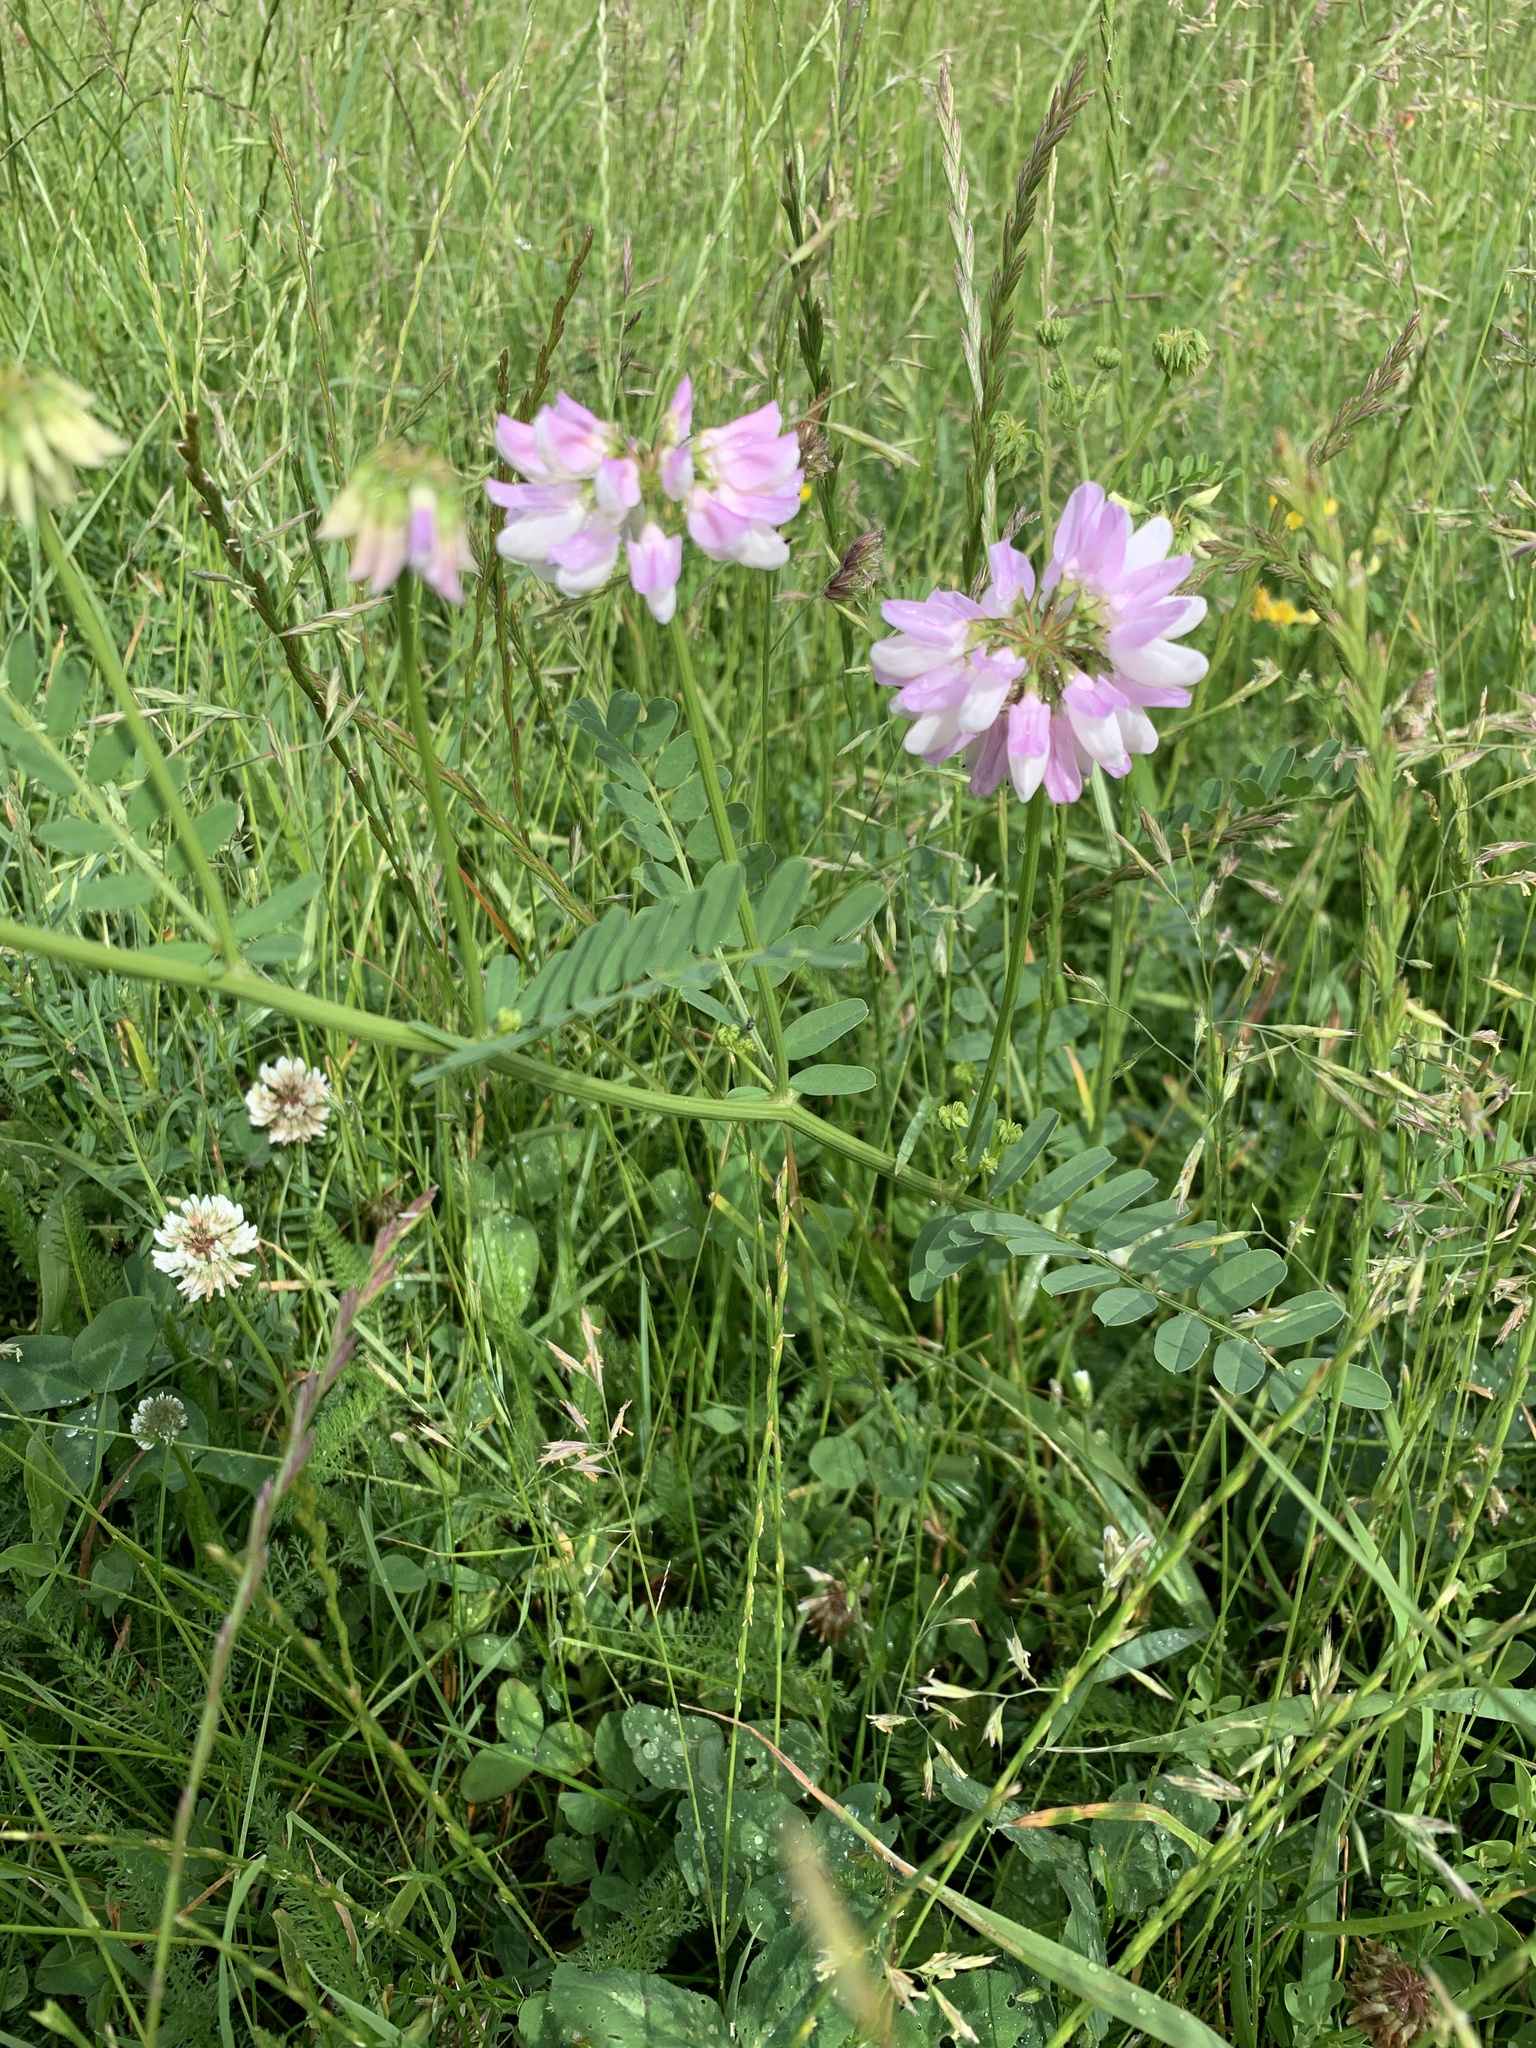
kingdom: Plantae
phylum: Tracheophyta
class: Magnoliopsida
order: Fabales
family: Fabaceae
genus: Coronilla
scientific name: Coronilla varia
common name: Crownvetch
